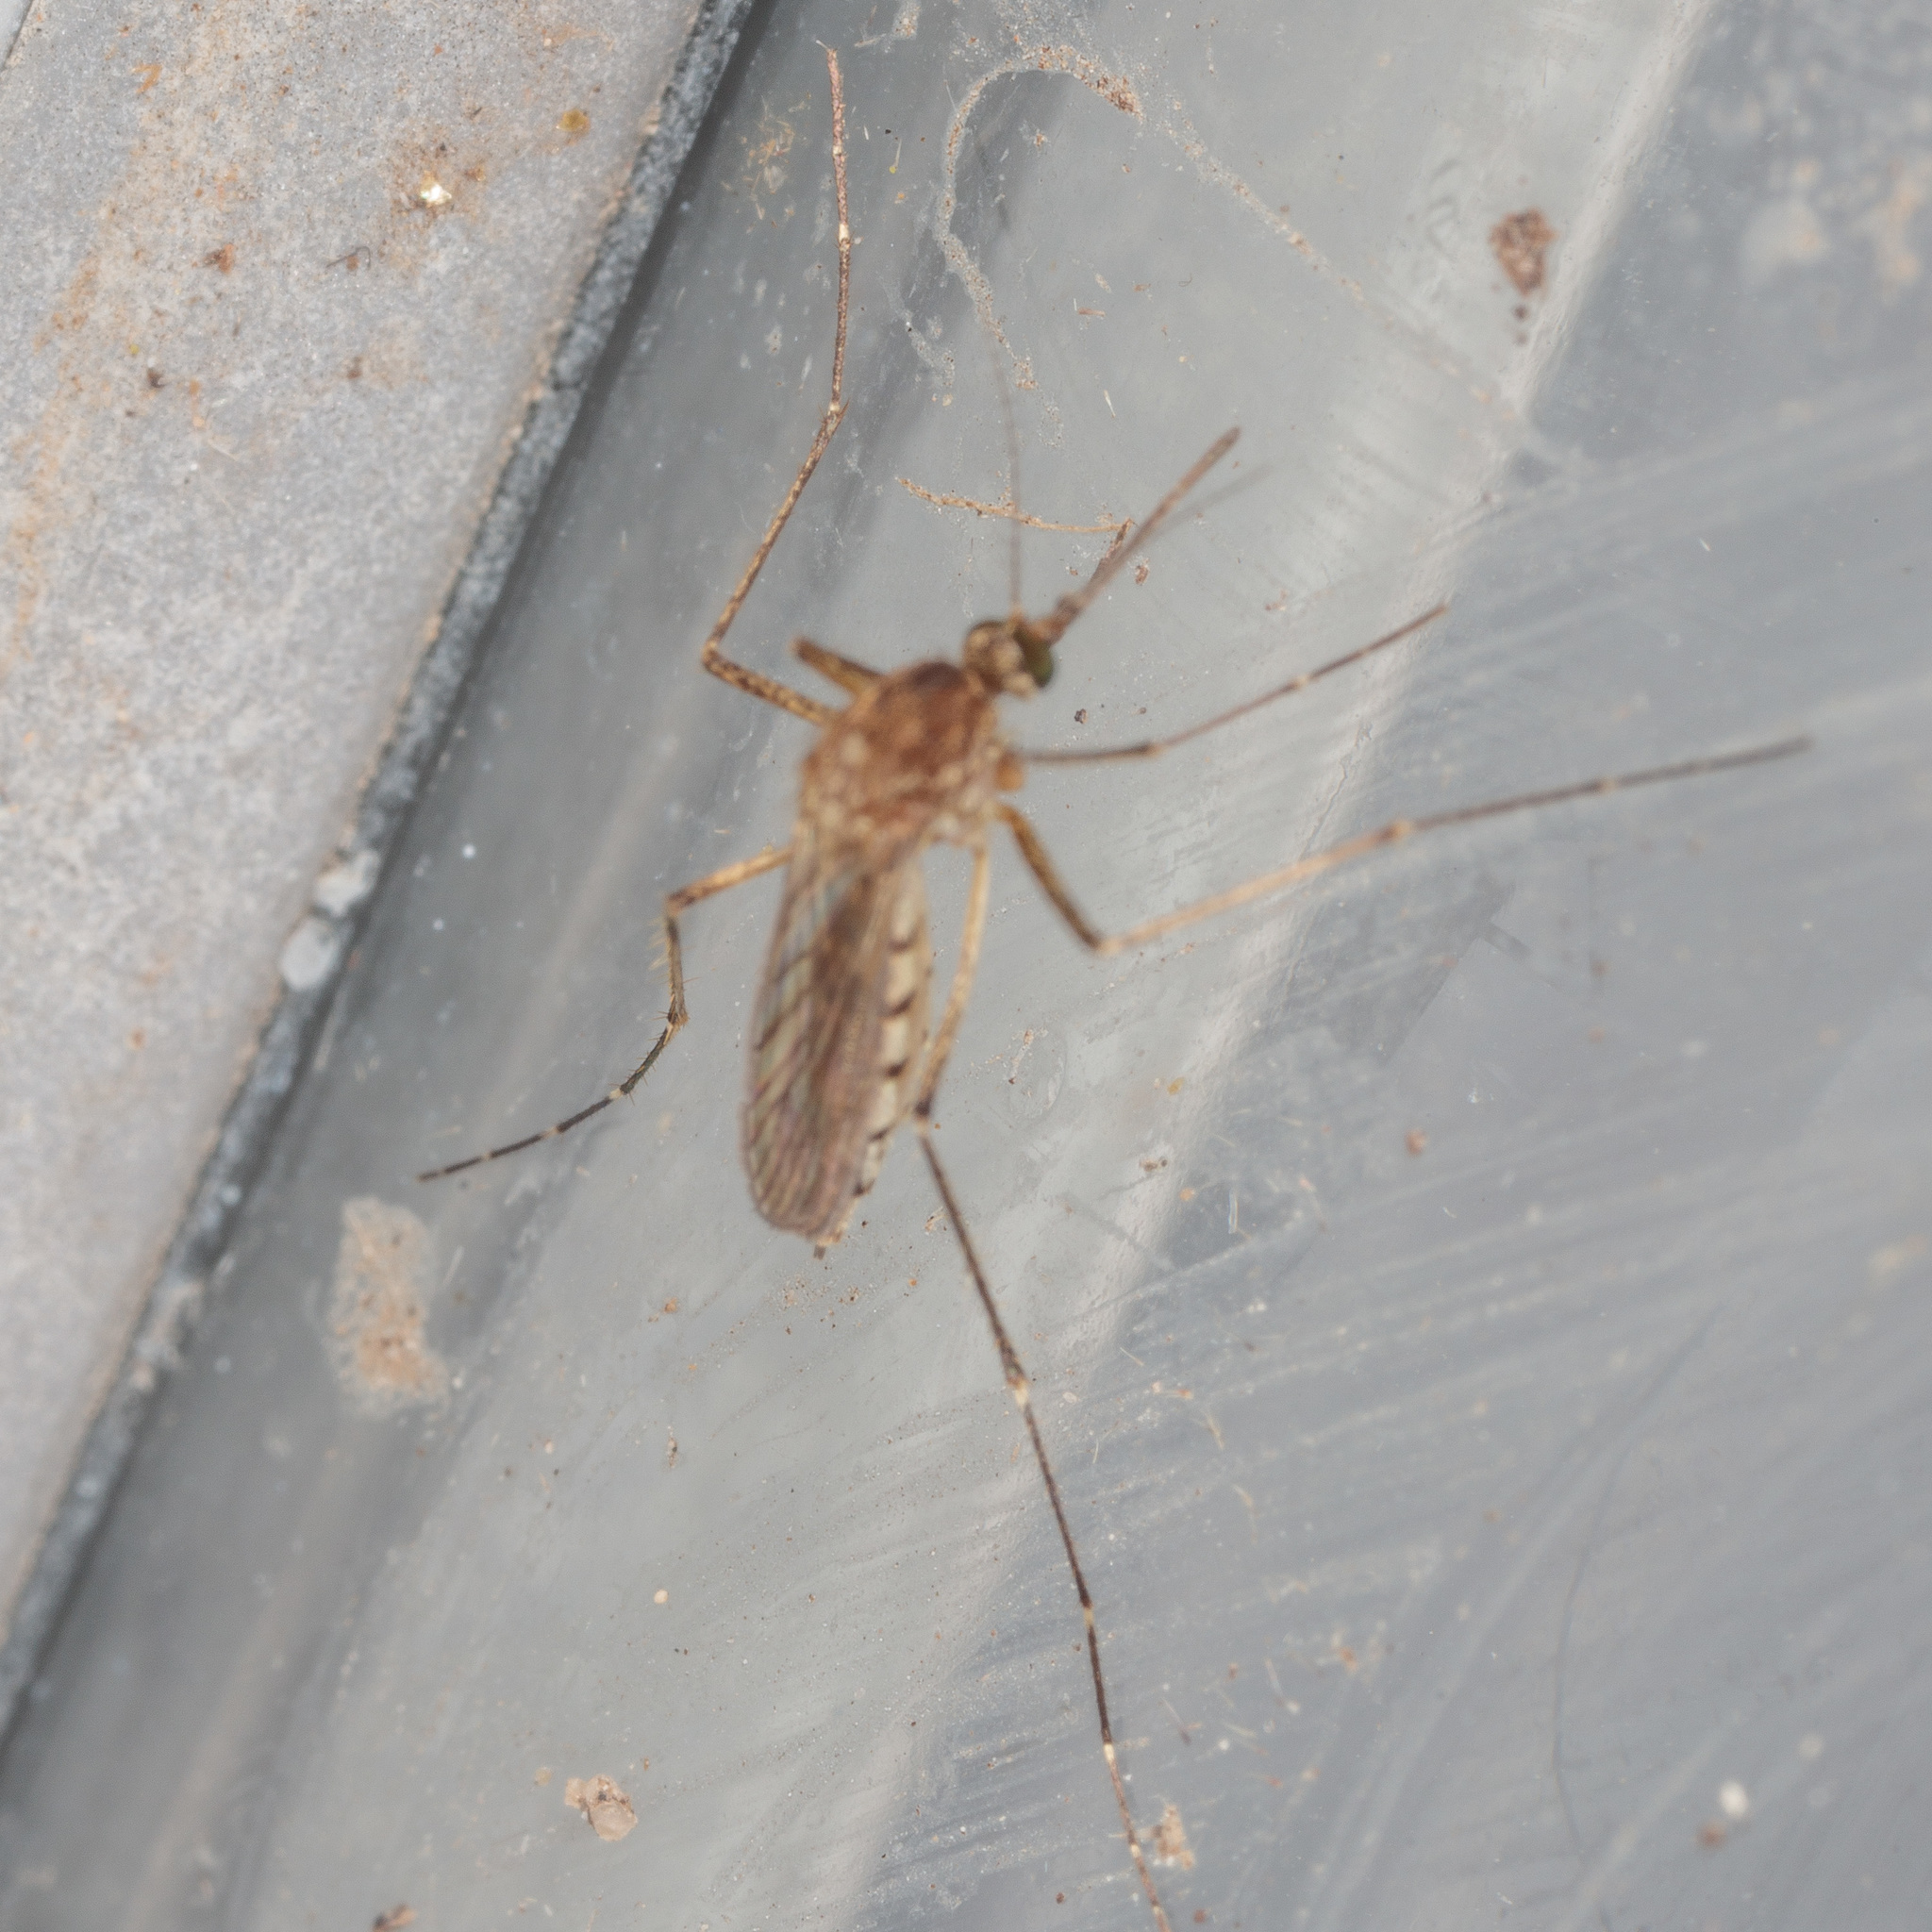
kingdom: Animalia
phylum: Arthropoda
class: Insecta
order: Diptera
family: Culicidae
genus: Aedes
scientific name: Aedes vexans
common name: Inland floodwater mosquito
